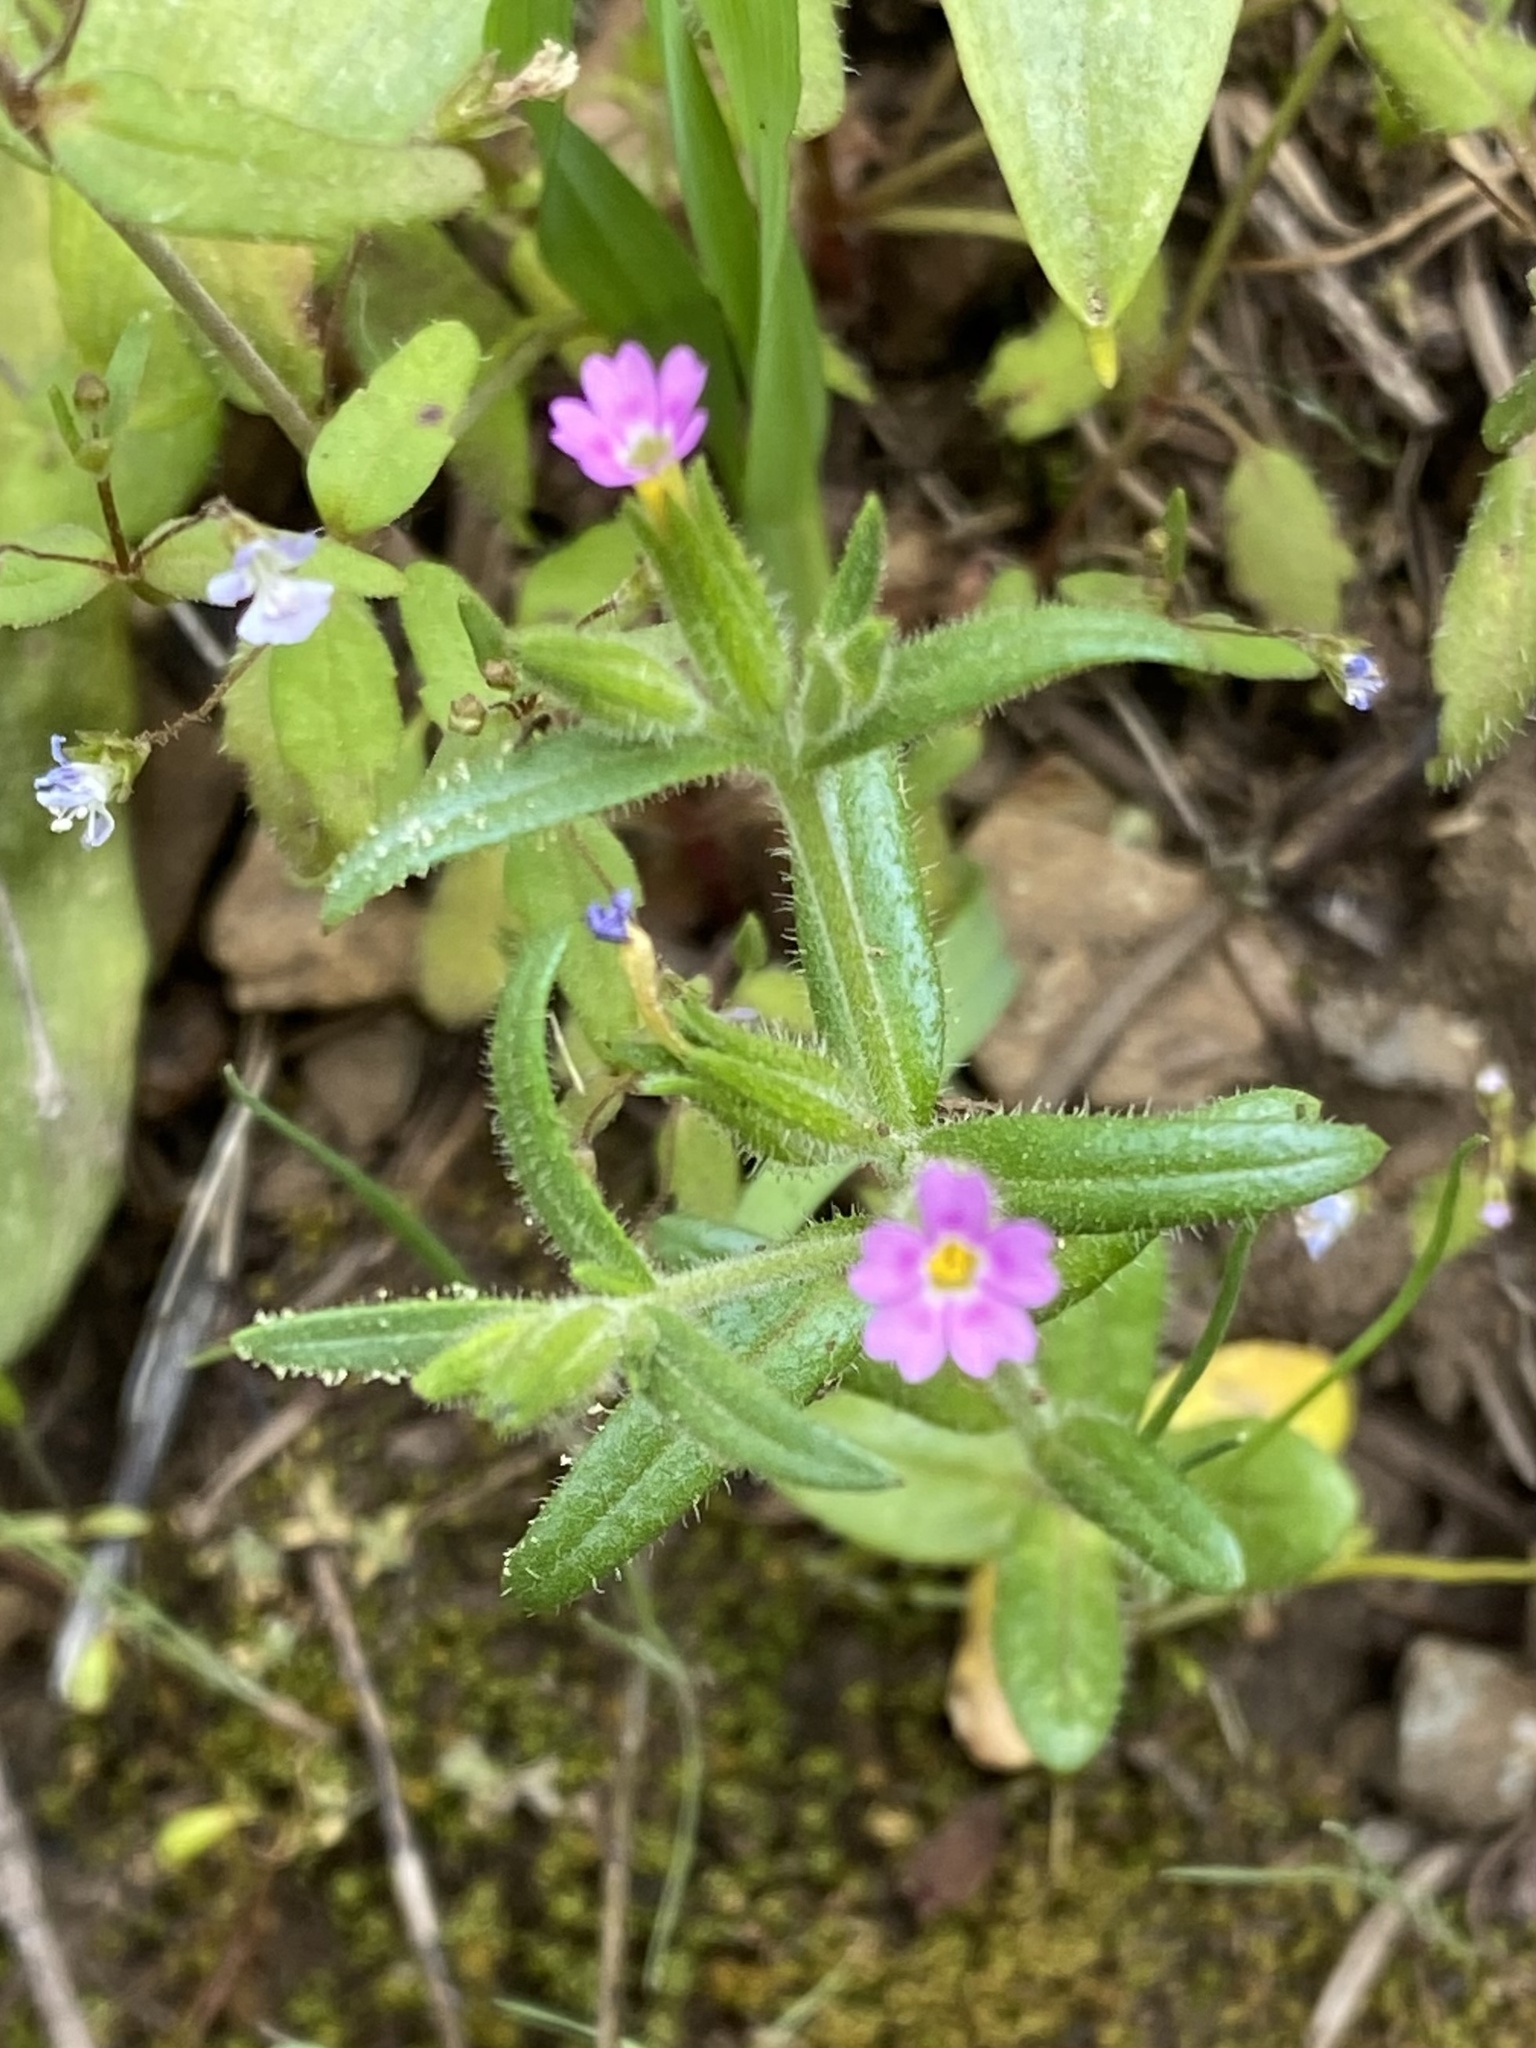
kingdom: Plantae
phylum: Tracheophyta
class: Magnoliopsida
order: Ericales
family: Polemoniaceae
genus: Phlox
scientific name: Phlox gracilis
